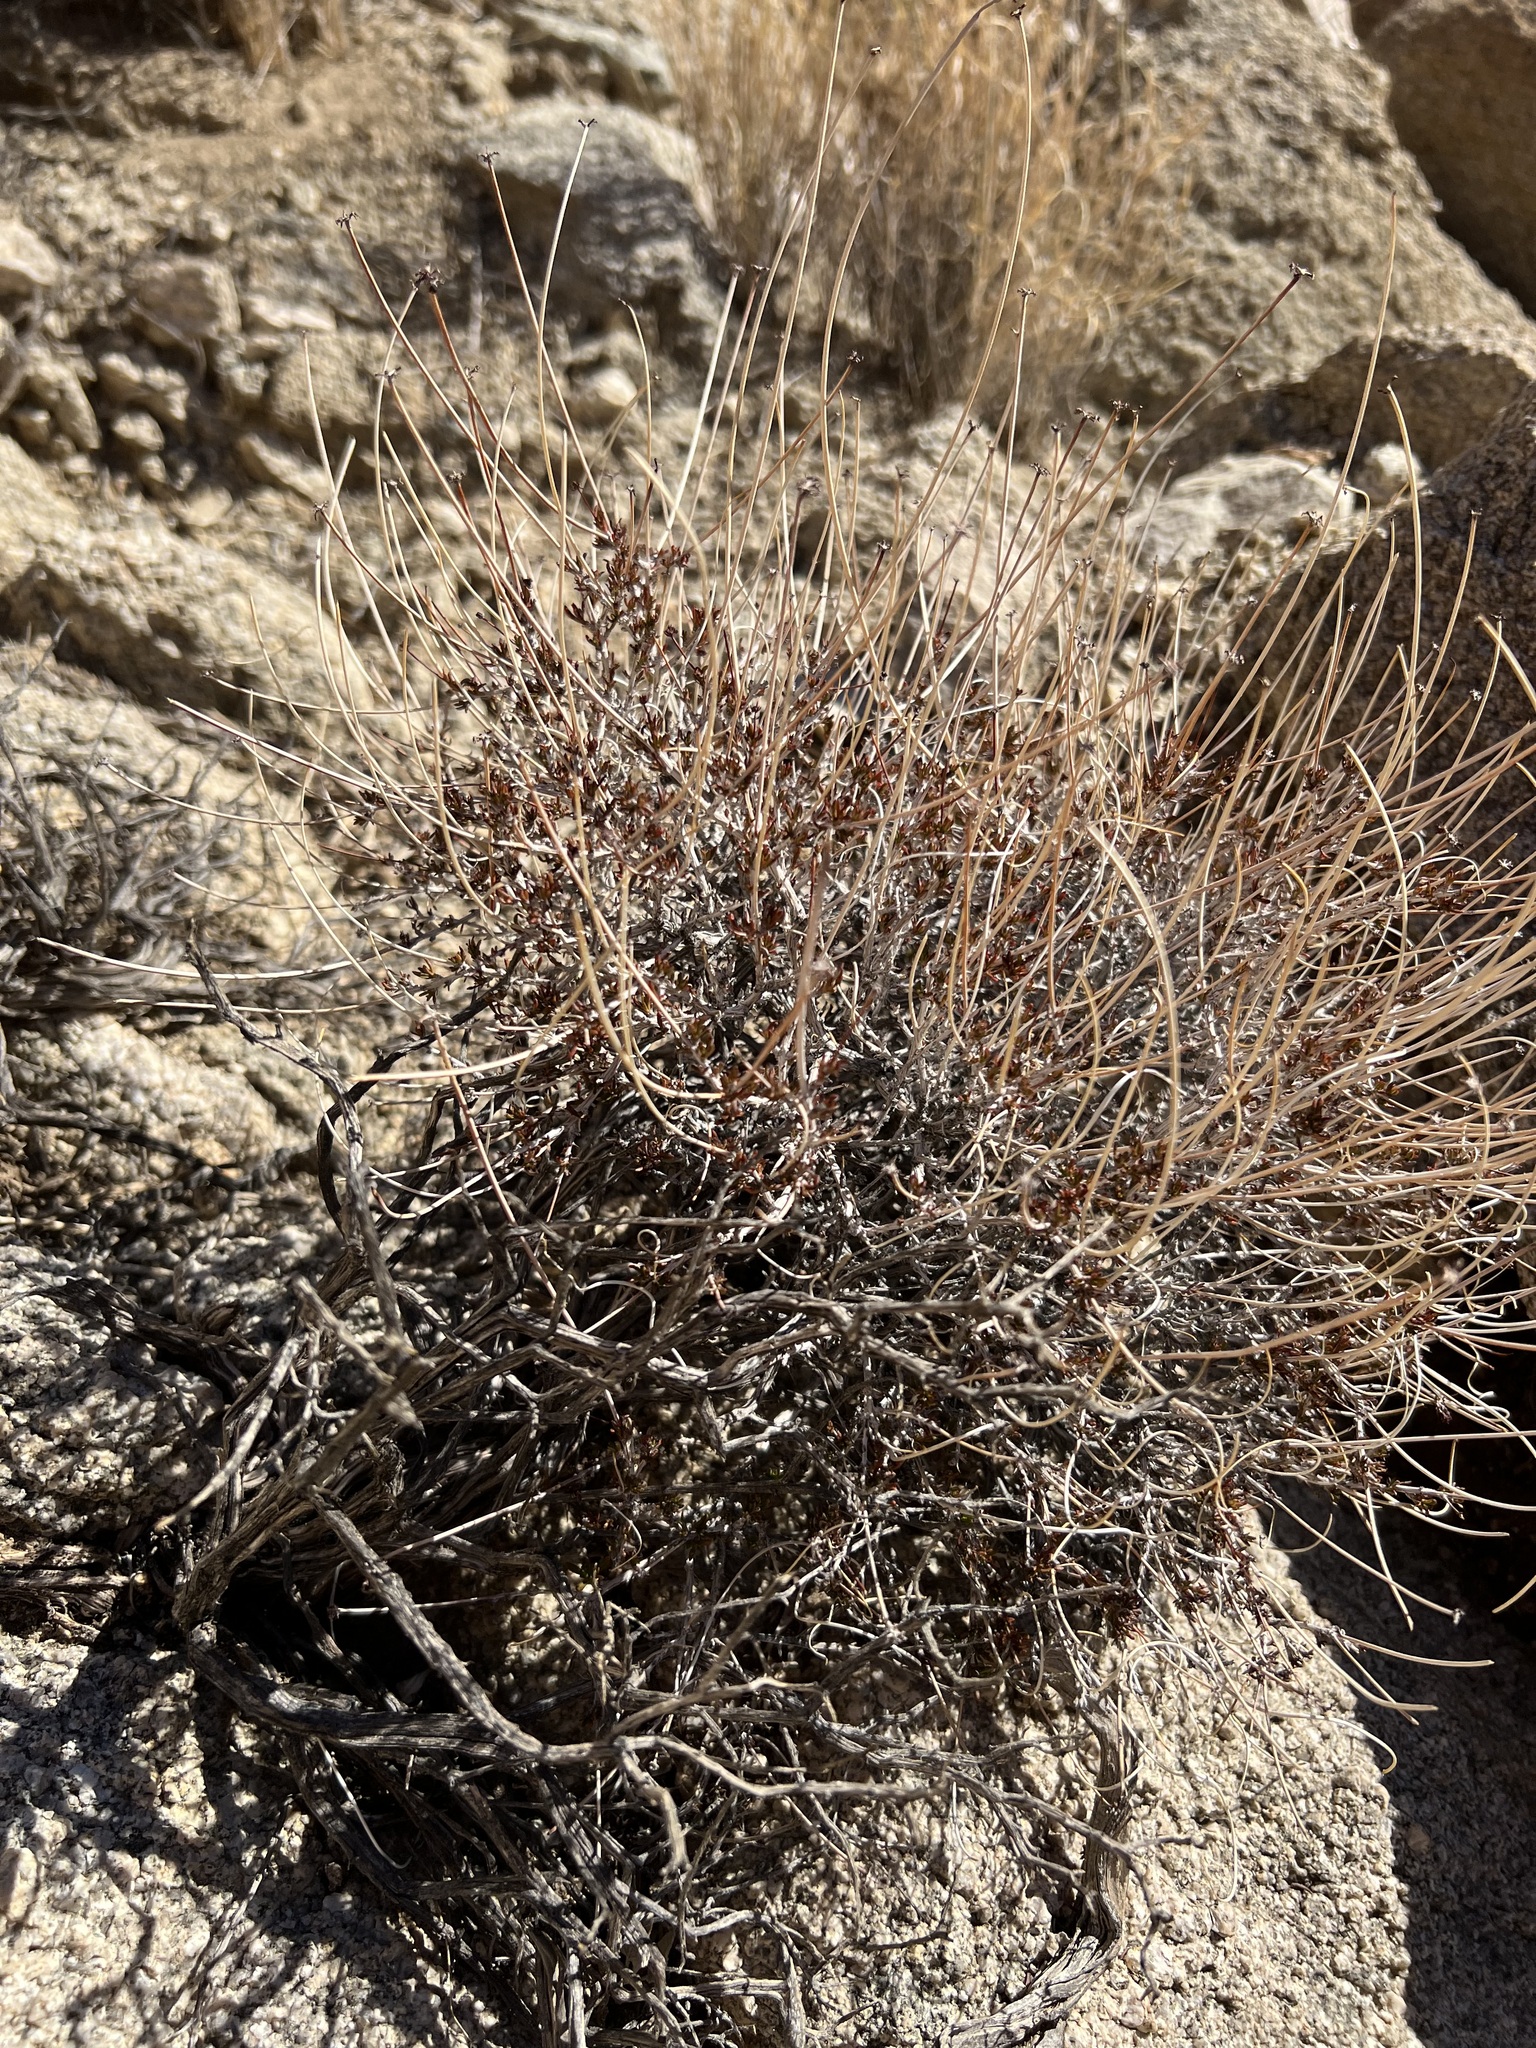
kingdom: Plantae
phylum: Tracheophyta
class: Magnoliopsida
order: Caryophyllales
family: Polygonaceae
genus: Eriogonum
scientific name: Eriogonum fasciculatum
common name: California wild buckwheat
